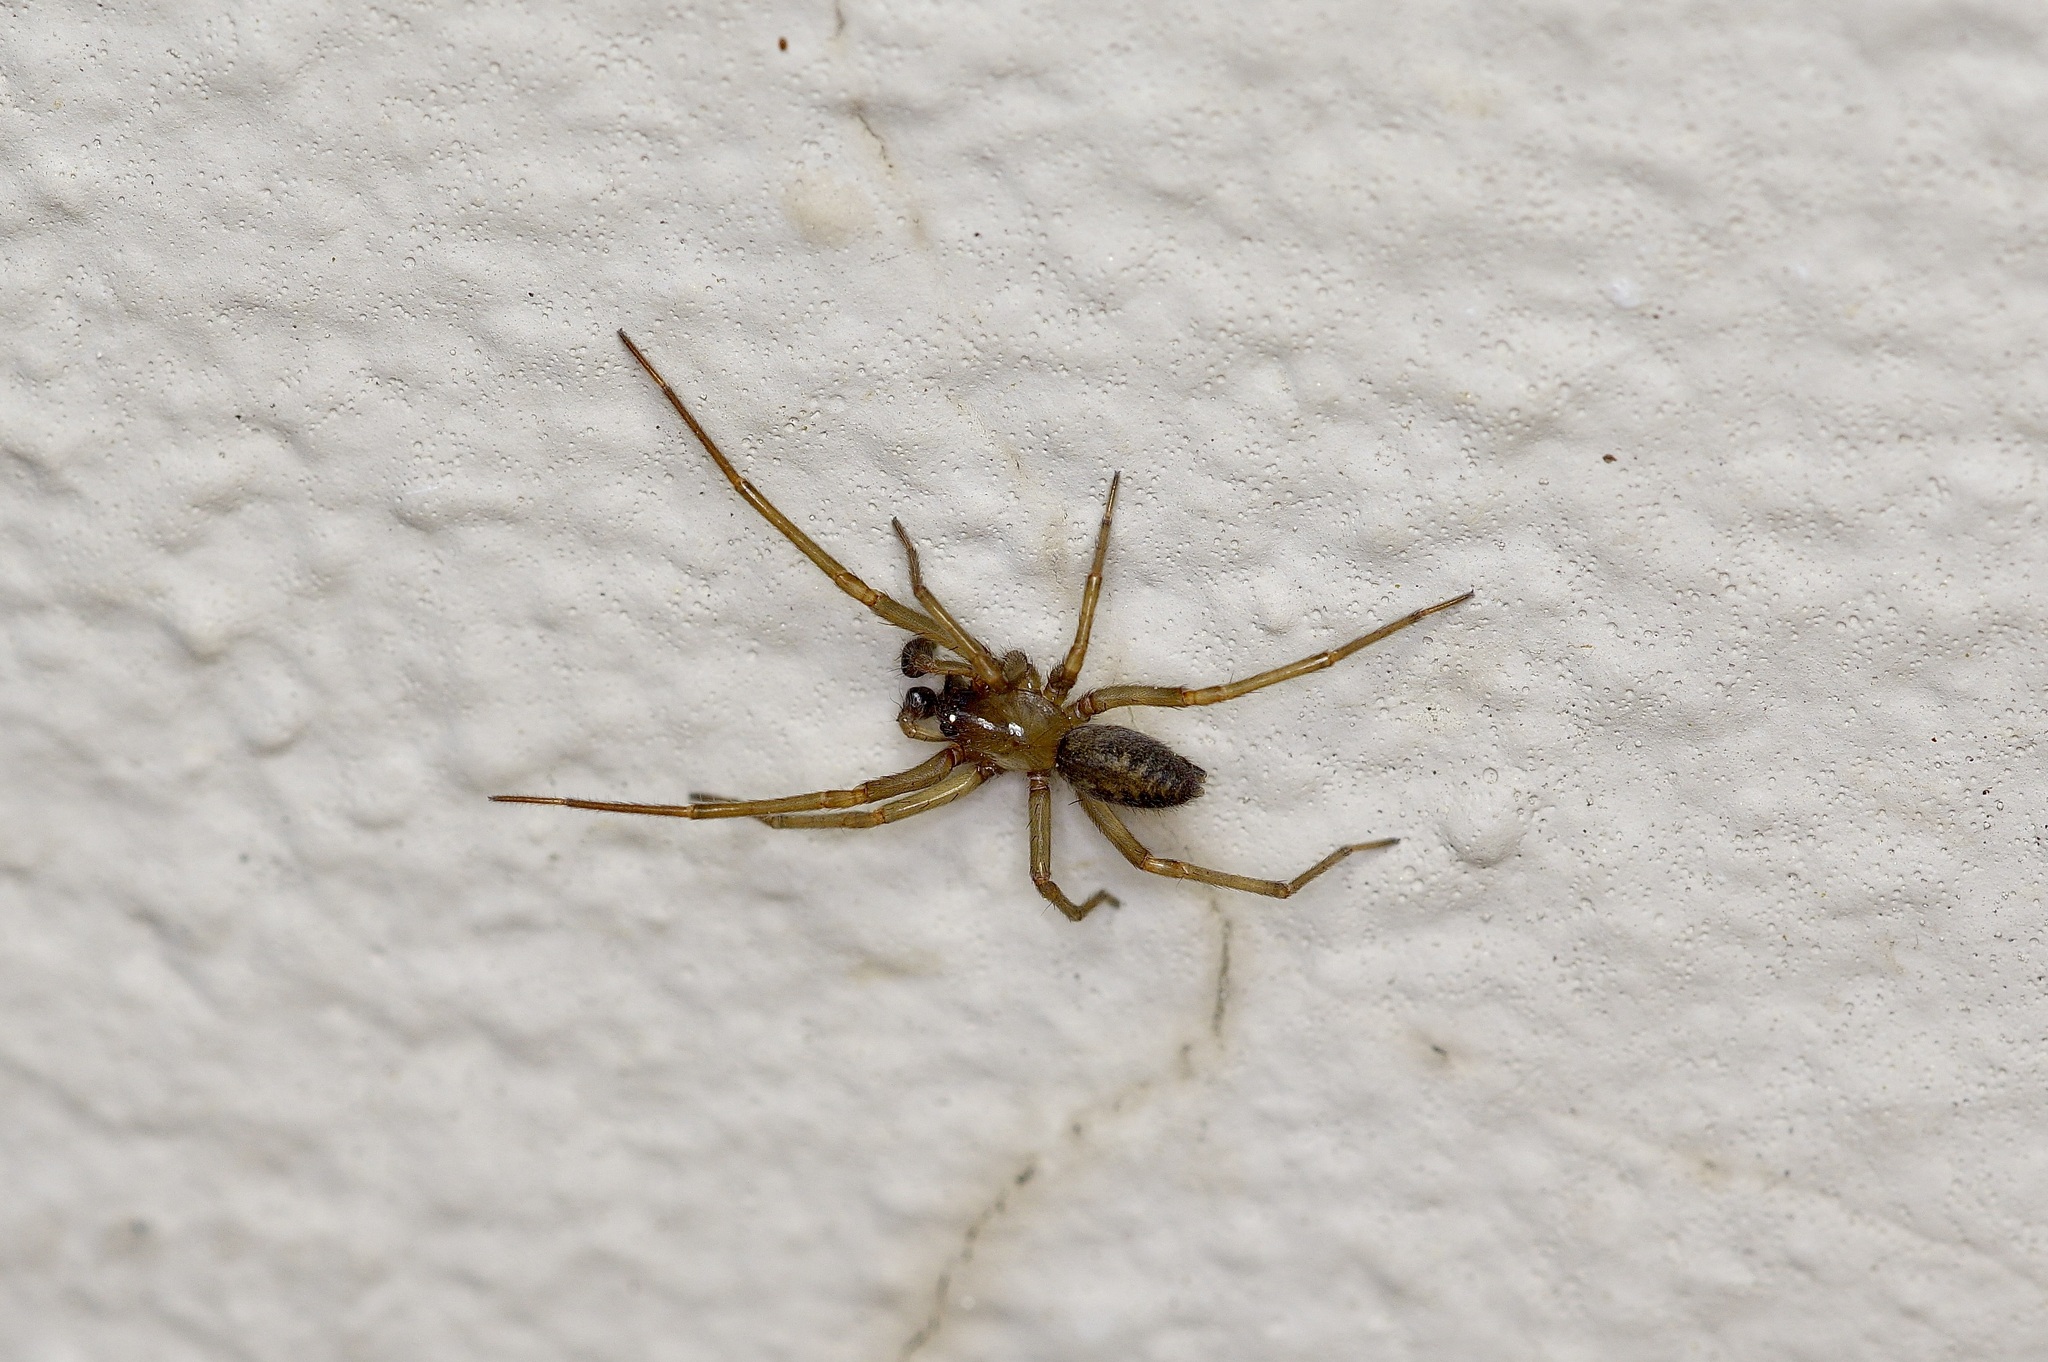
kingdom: Animalia
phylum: Arthropoda
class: Arachnida
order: Araneae
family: Desidae
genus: Metaltella
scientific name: Metaltella simoni
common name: Cribellate spider
